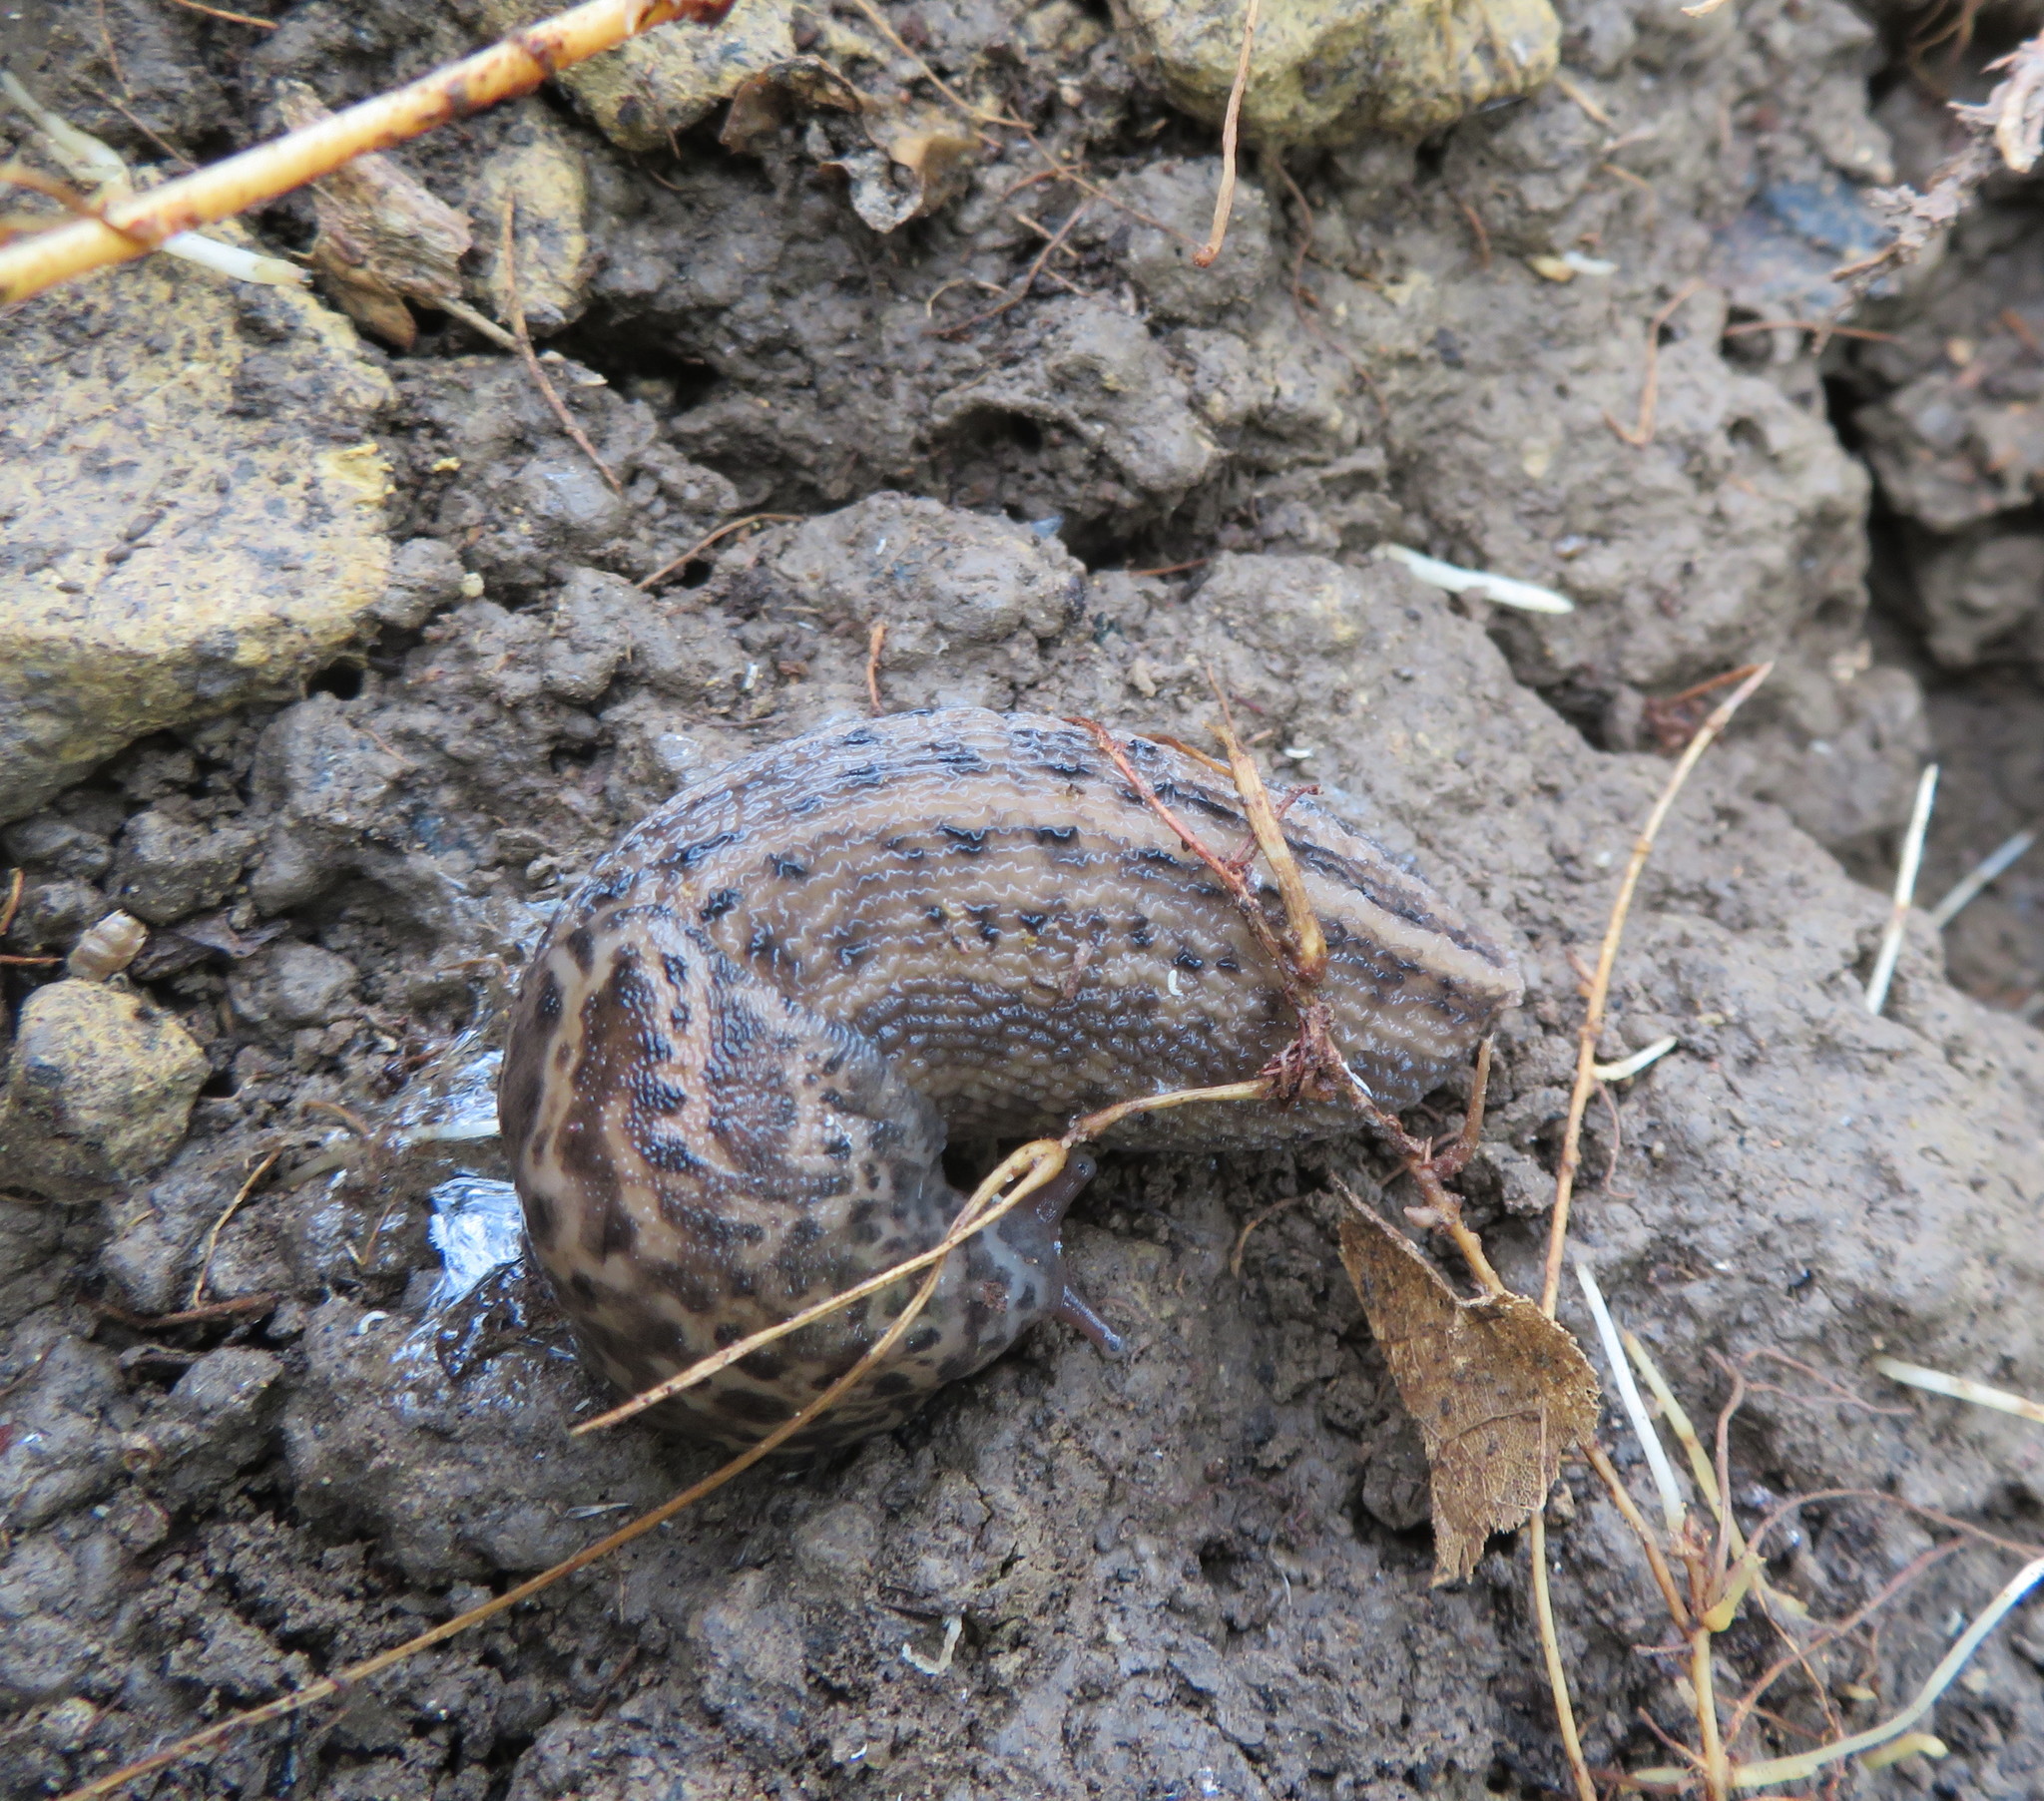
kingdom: Animalia
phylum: Mollusca
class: Gastropoda
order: Stylommatophora
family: Limacidae
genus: Limax
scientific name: Limax maximus
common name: Great grey slug
